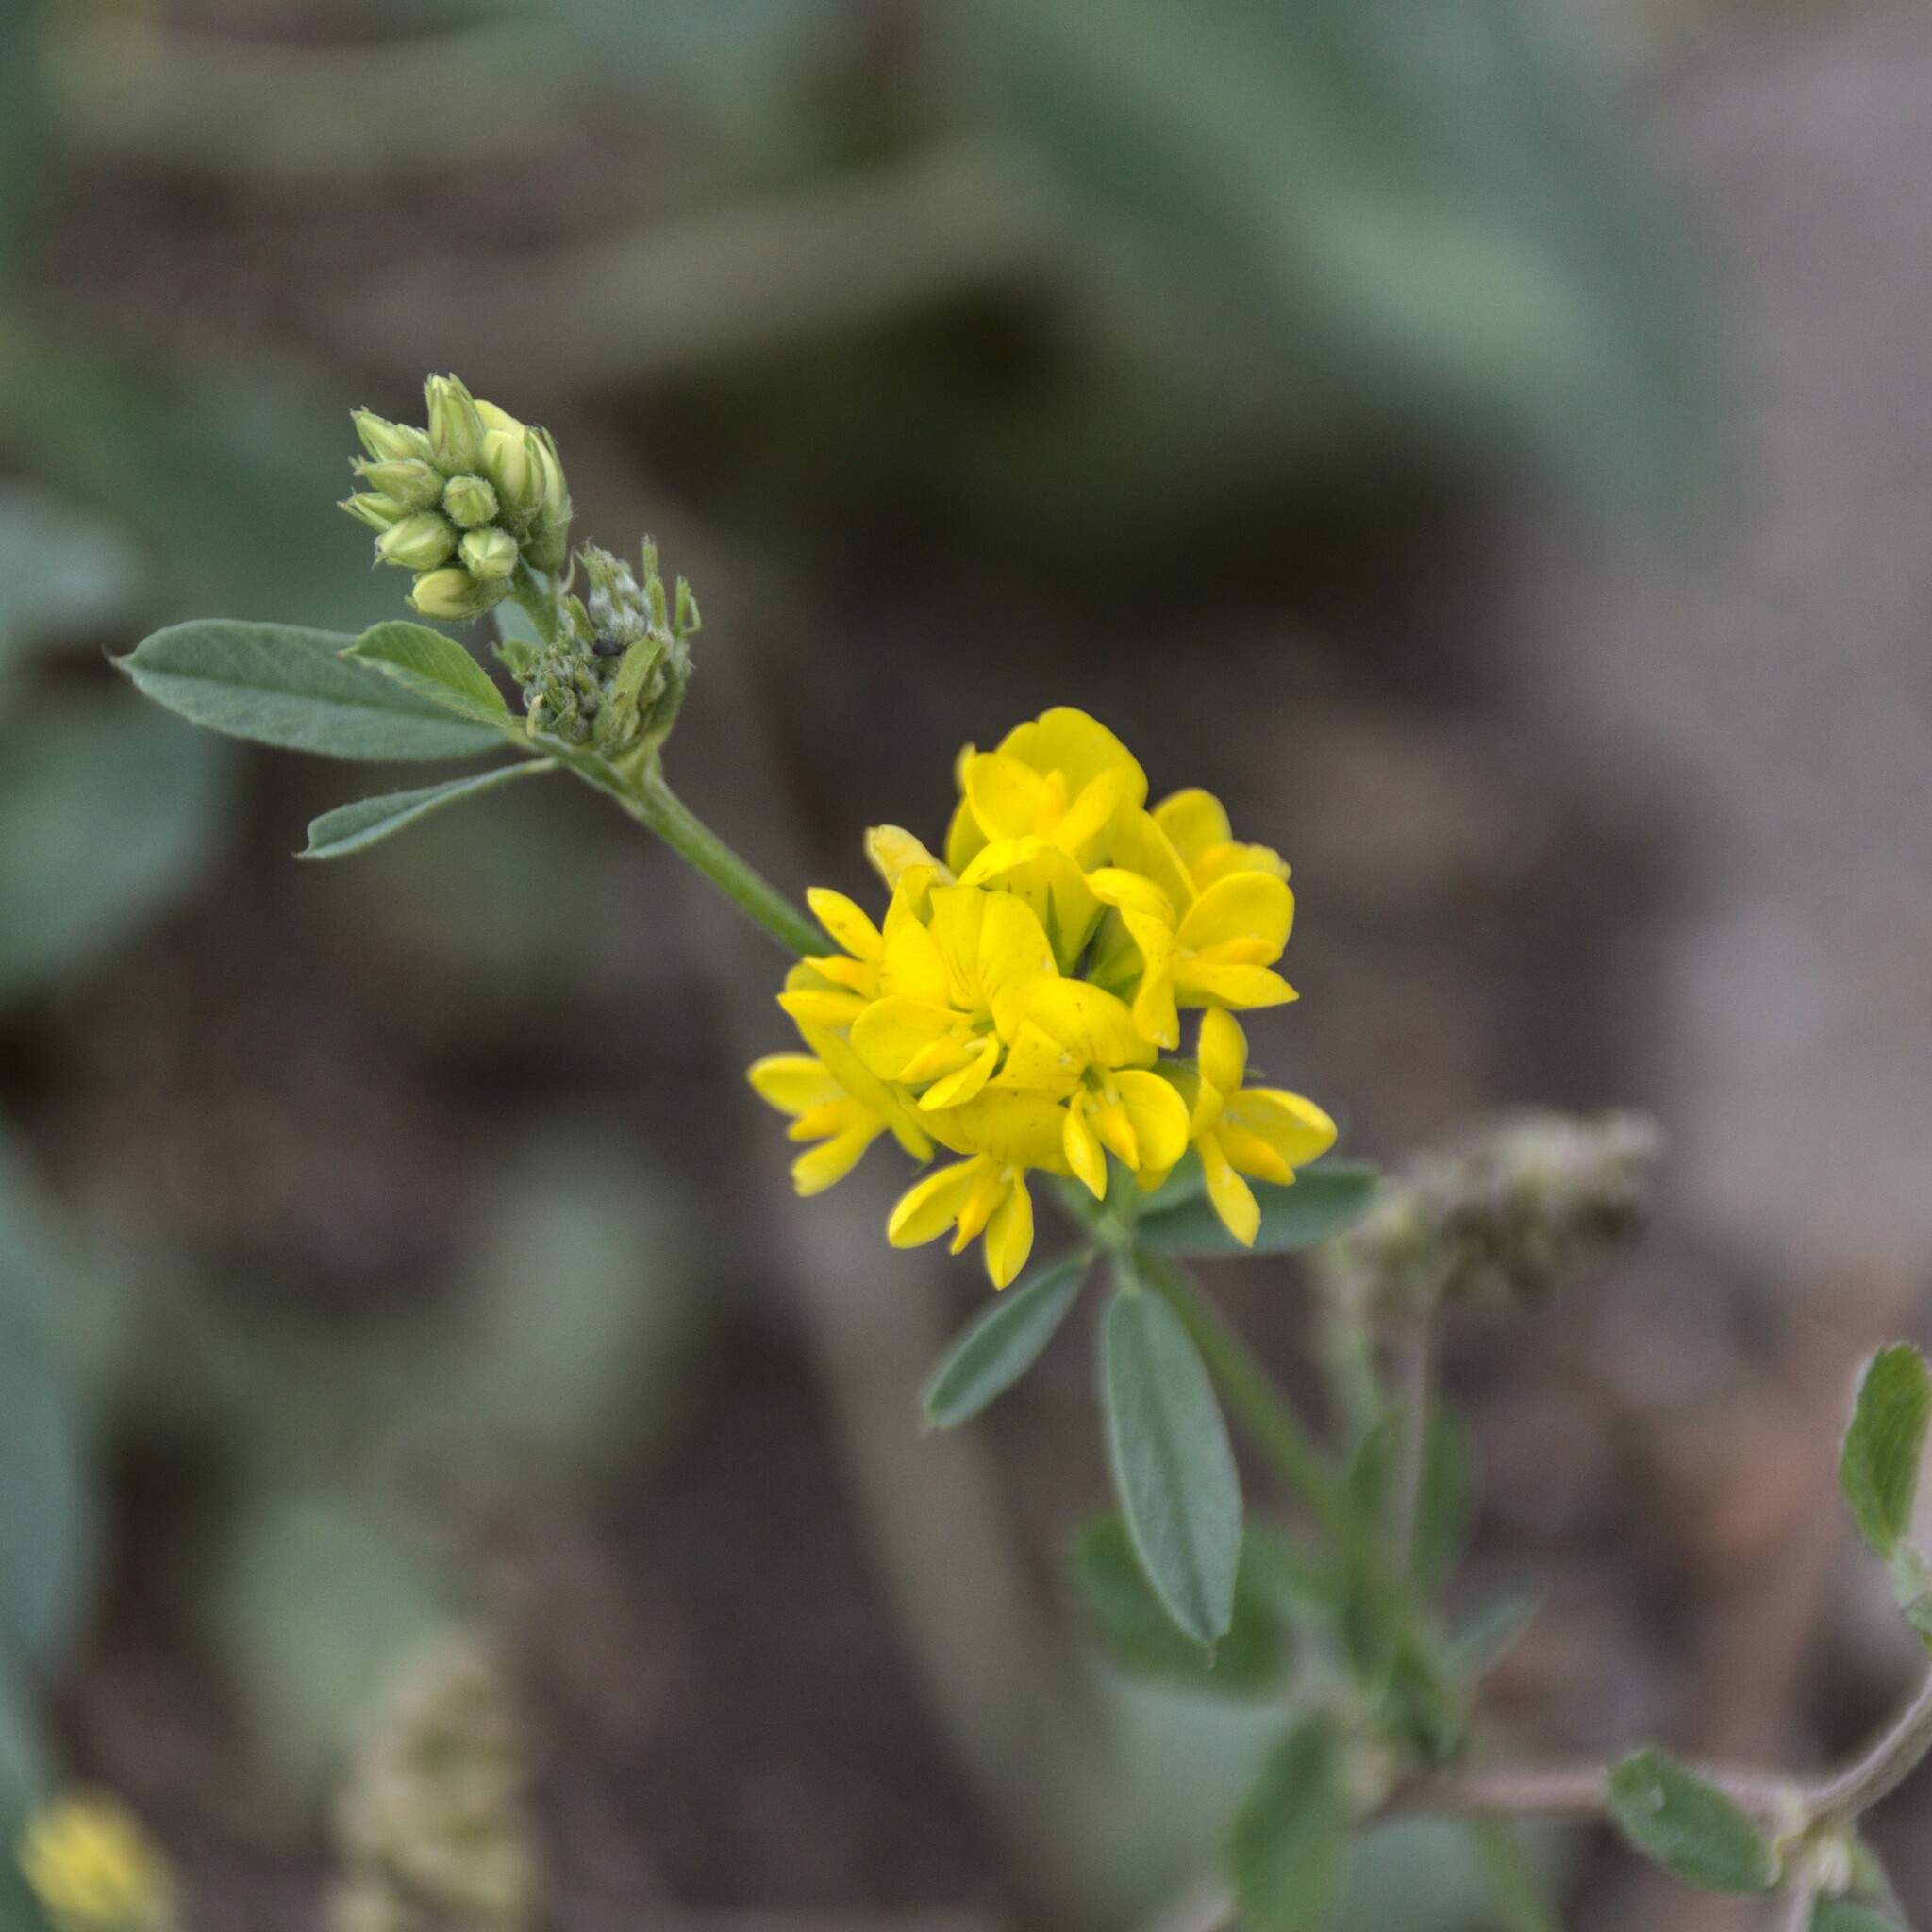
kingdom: Plantae
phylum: Tracheophyta
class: Magnoliopsida
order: Fabales
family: Fabaceae
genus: Medicago
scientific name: Medicago falcata
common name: Sickle medick
